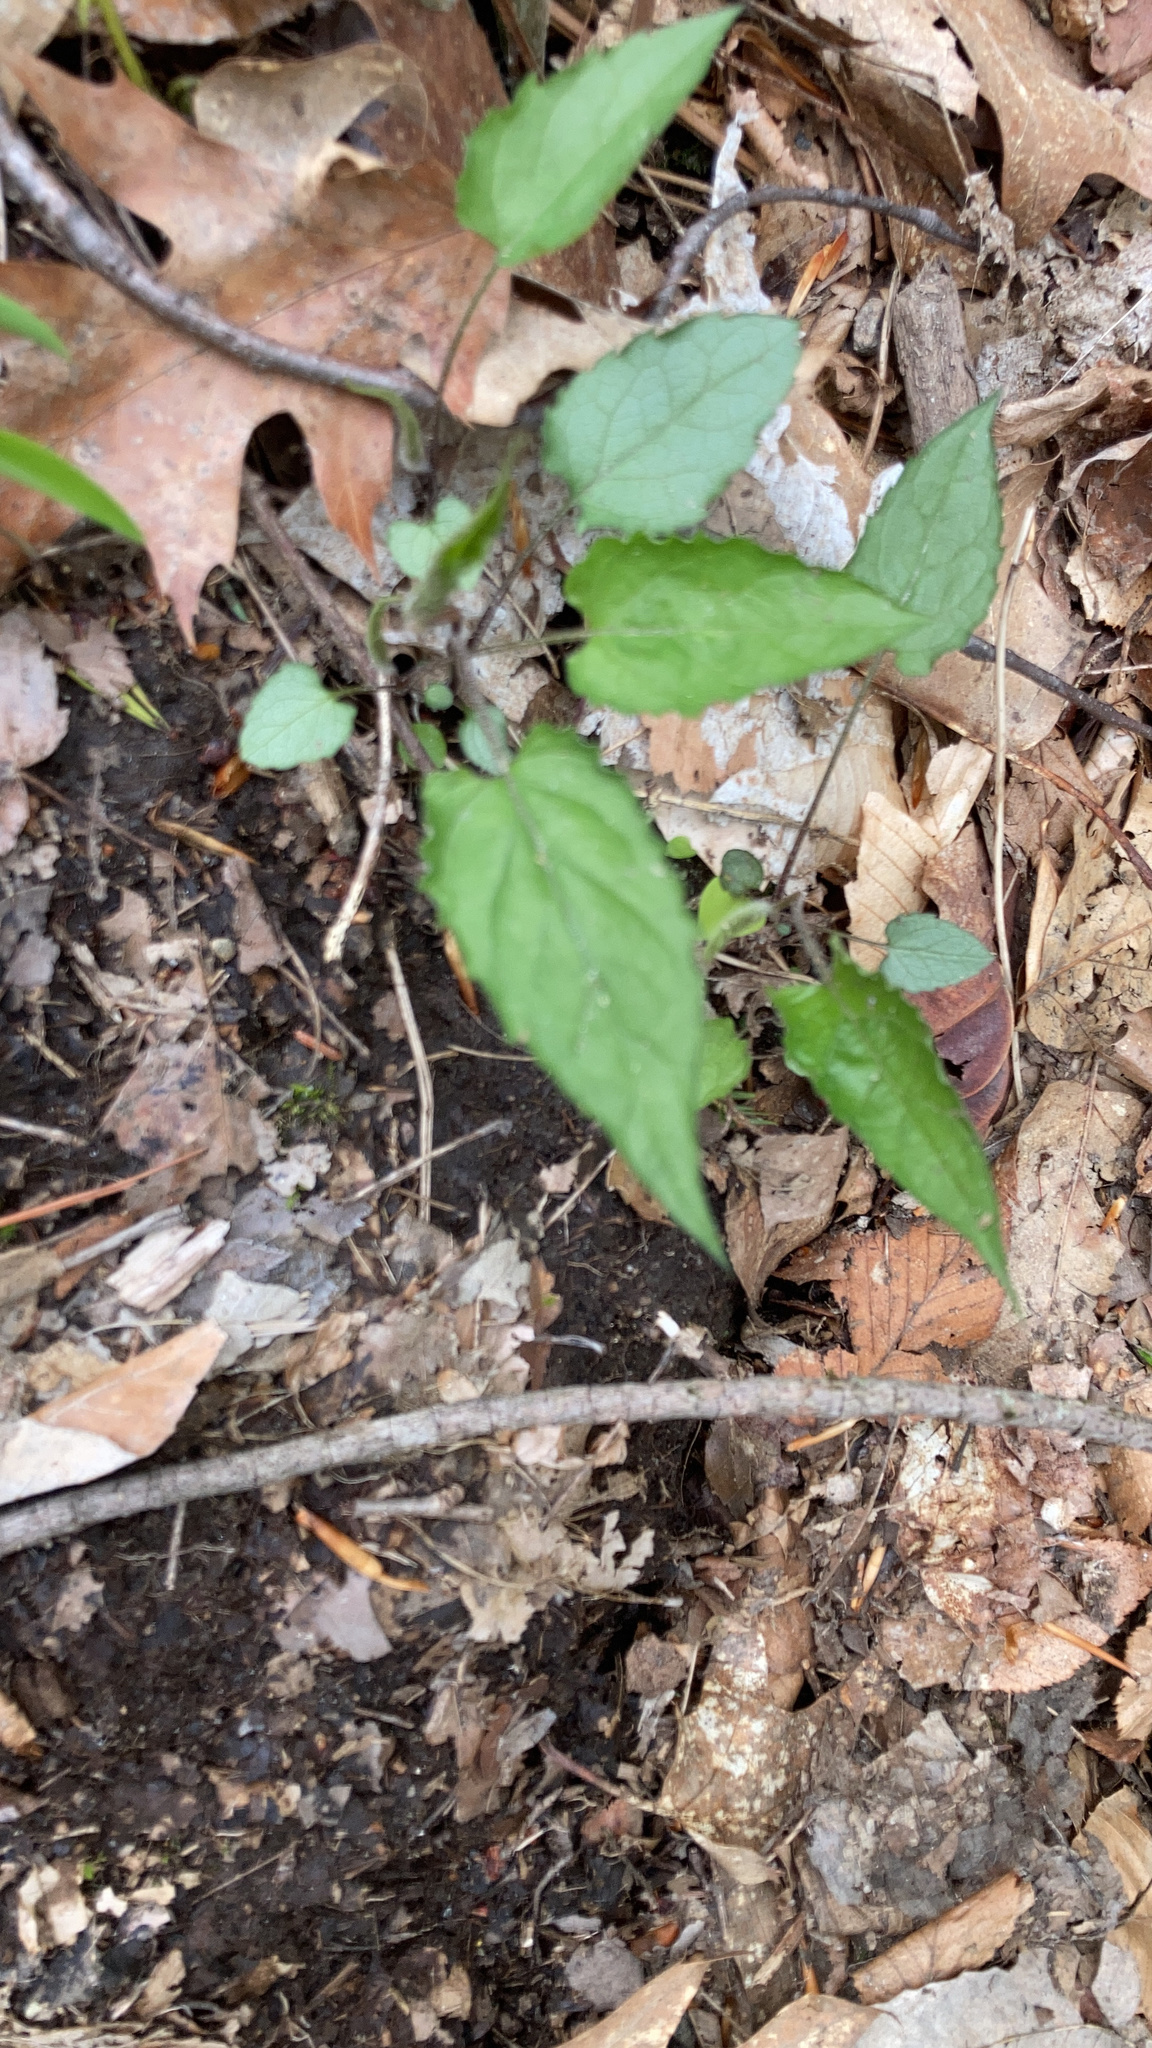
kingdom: Plantae
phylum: Tracheophyta
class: Magnoliopsida
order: Asterales
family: Asteraceae
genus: Eurybia
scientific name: Eurybia divaricata
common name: White wood aster
